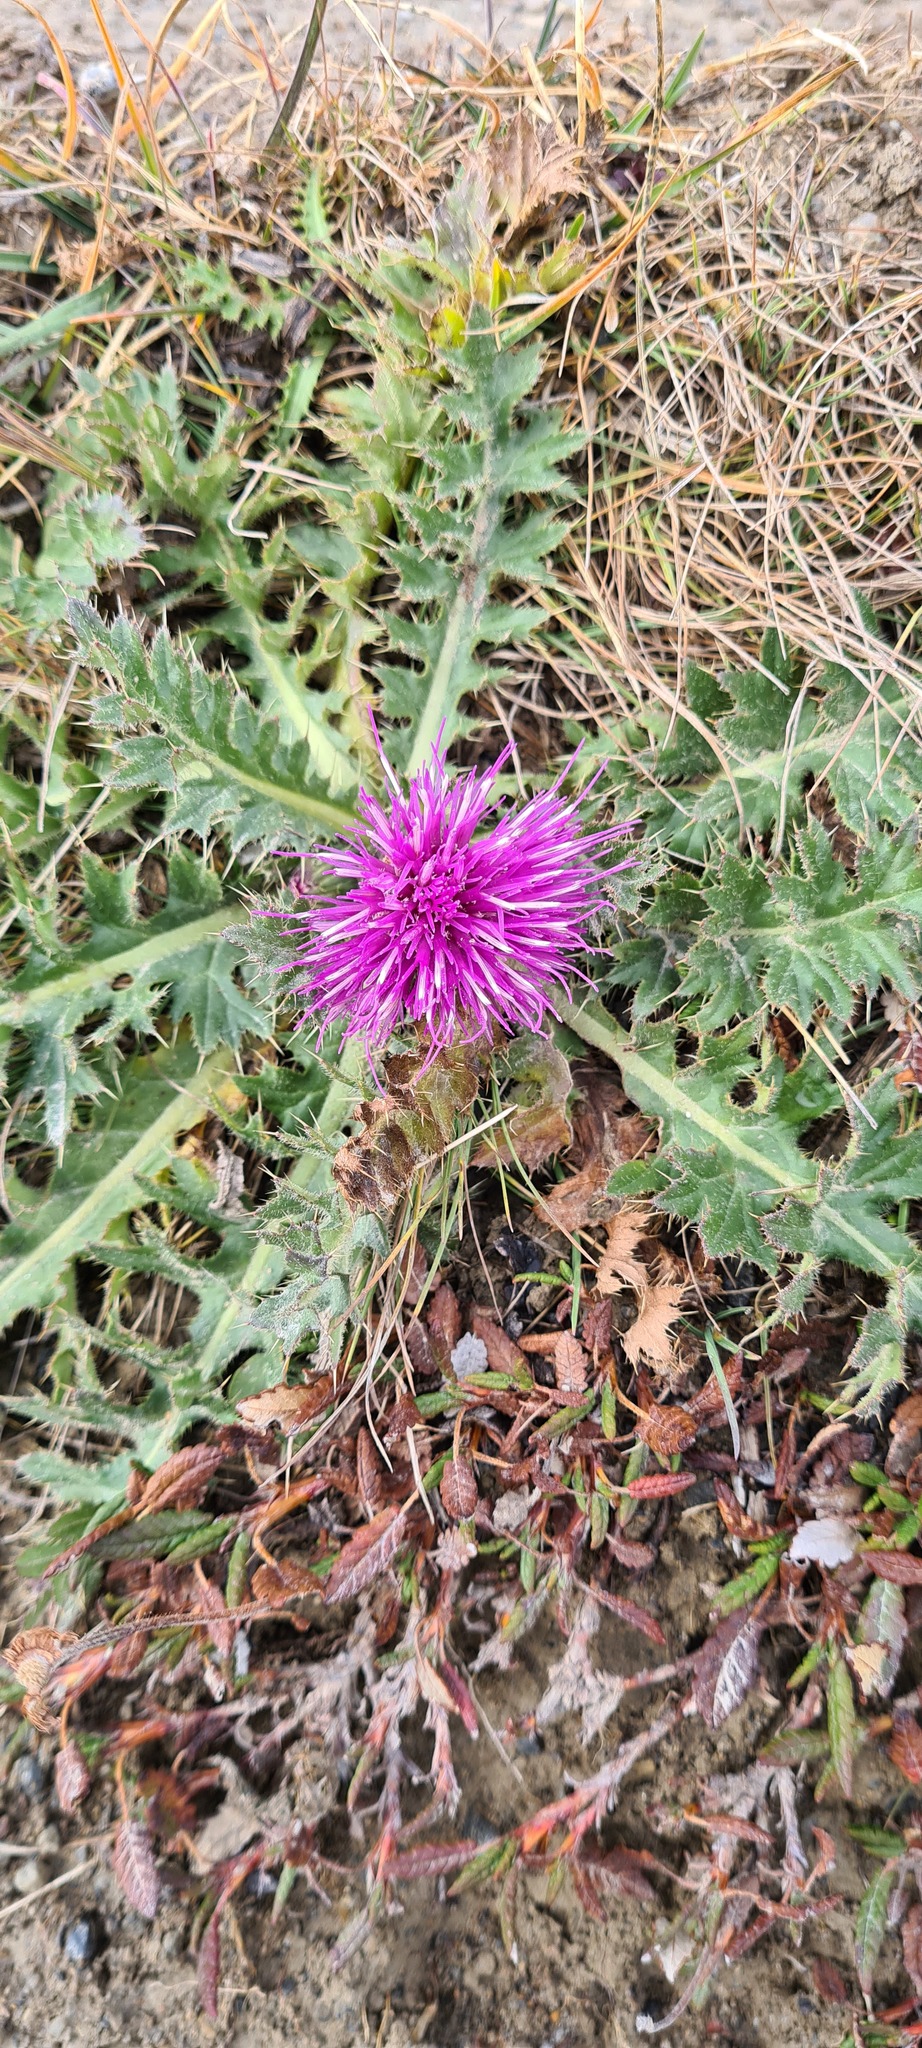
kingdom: Plantae
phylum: Tracheophyta
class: Magnoliopsida
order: Asterales
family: Asteraceae
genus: Cirsium
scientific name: Cirsium acaulon
